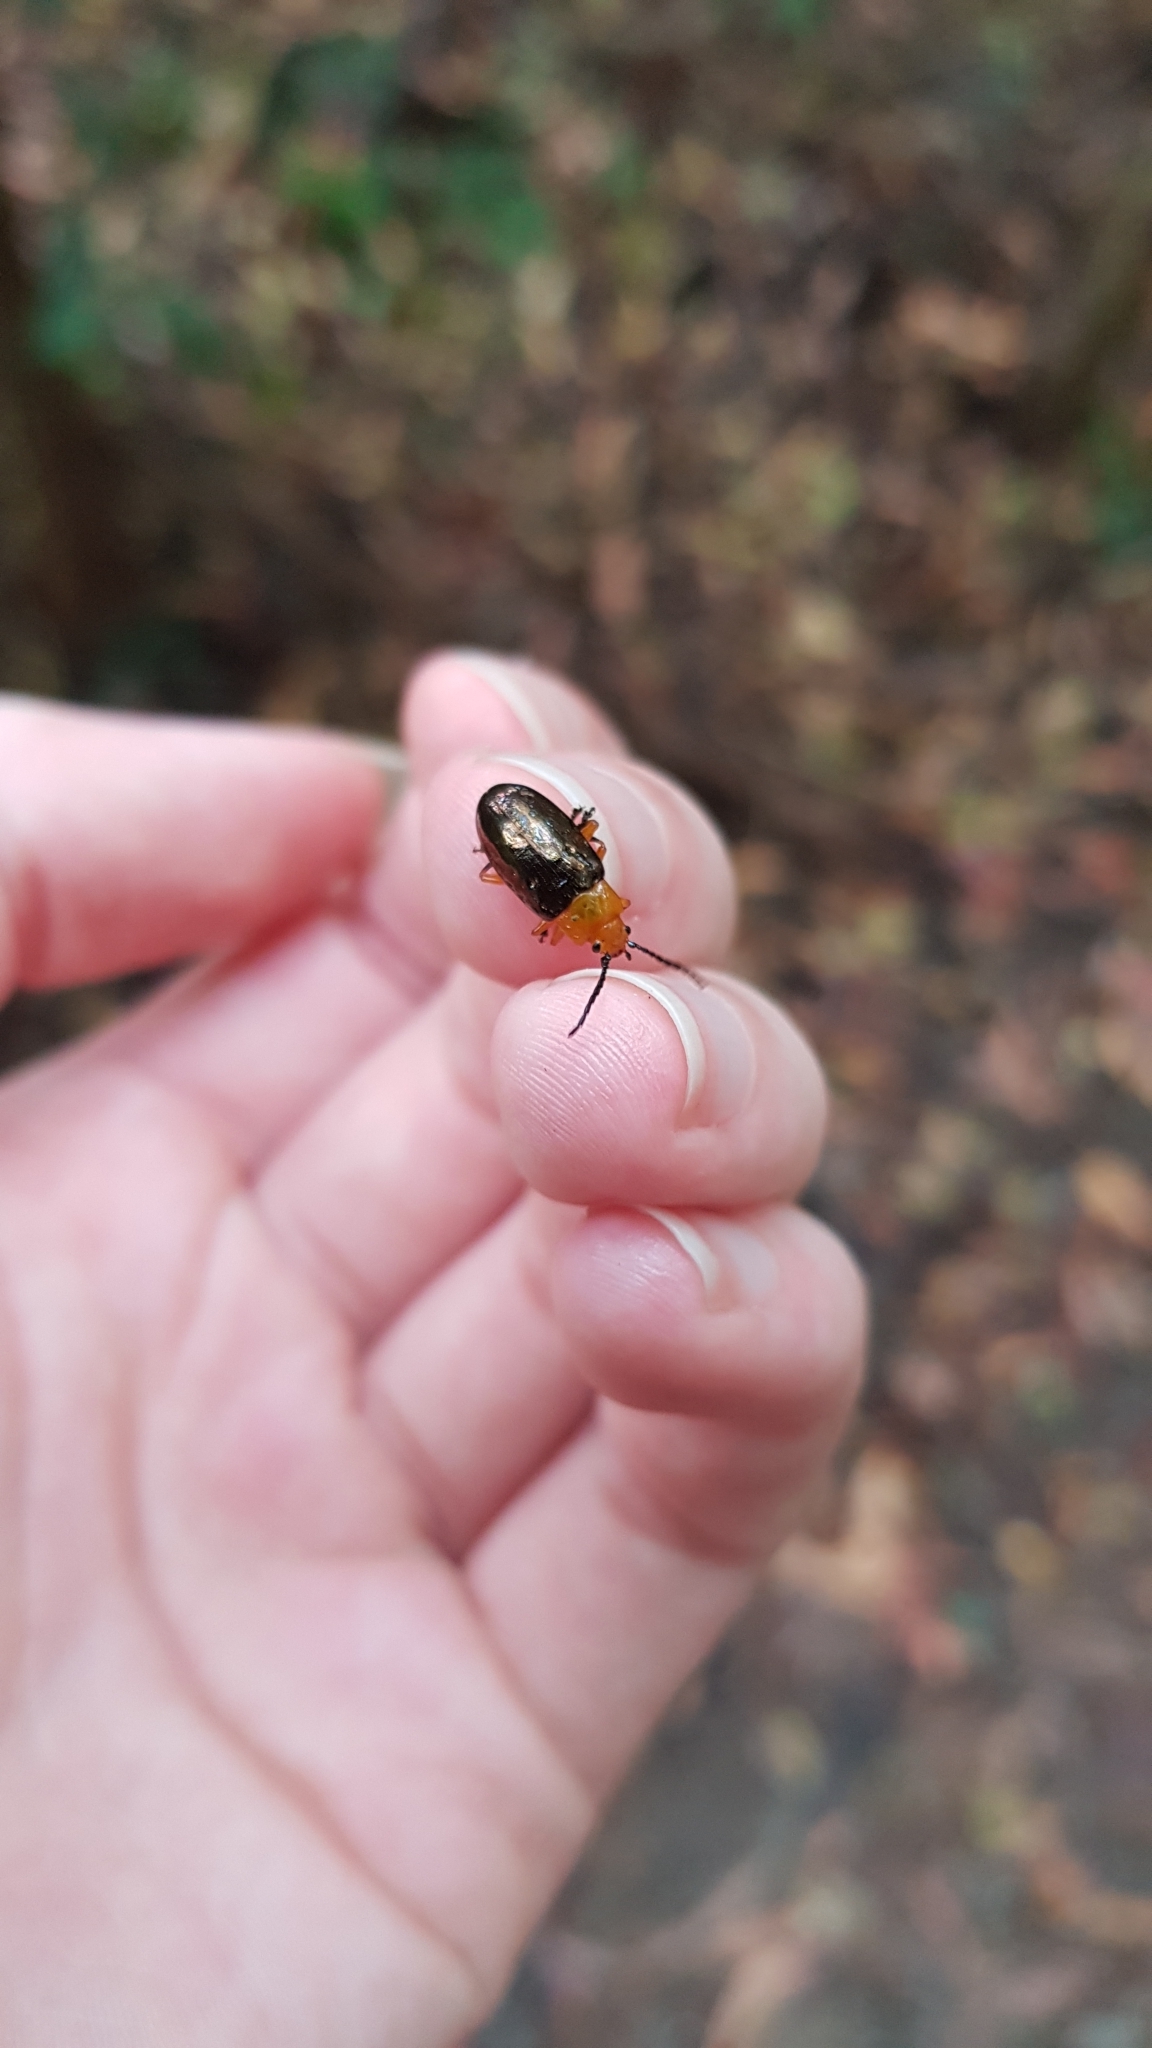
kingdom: Animalia
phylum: Arthropoda
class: Insecta
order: Coleoptera
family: Chrysomelidae
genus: Lamprolina
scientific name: Lamprolina
